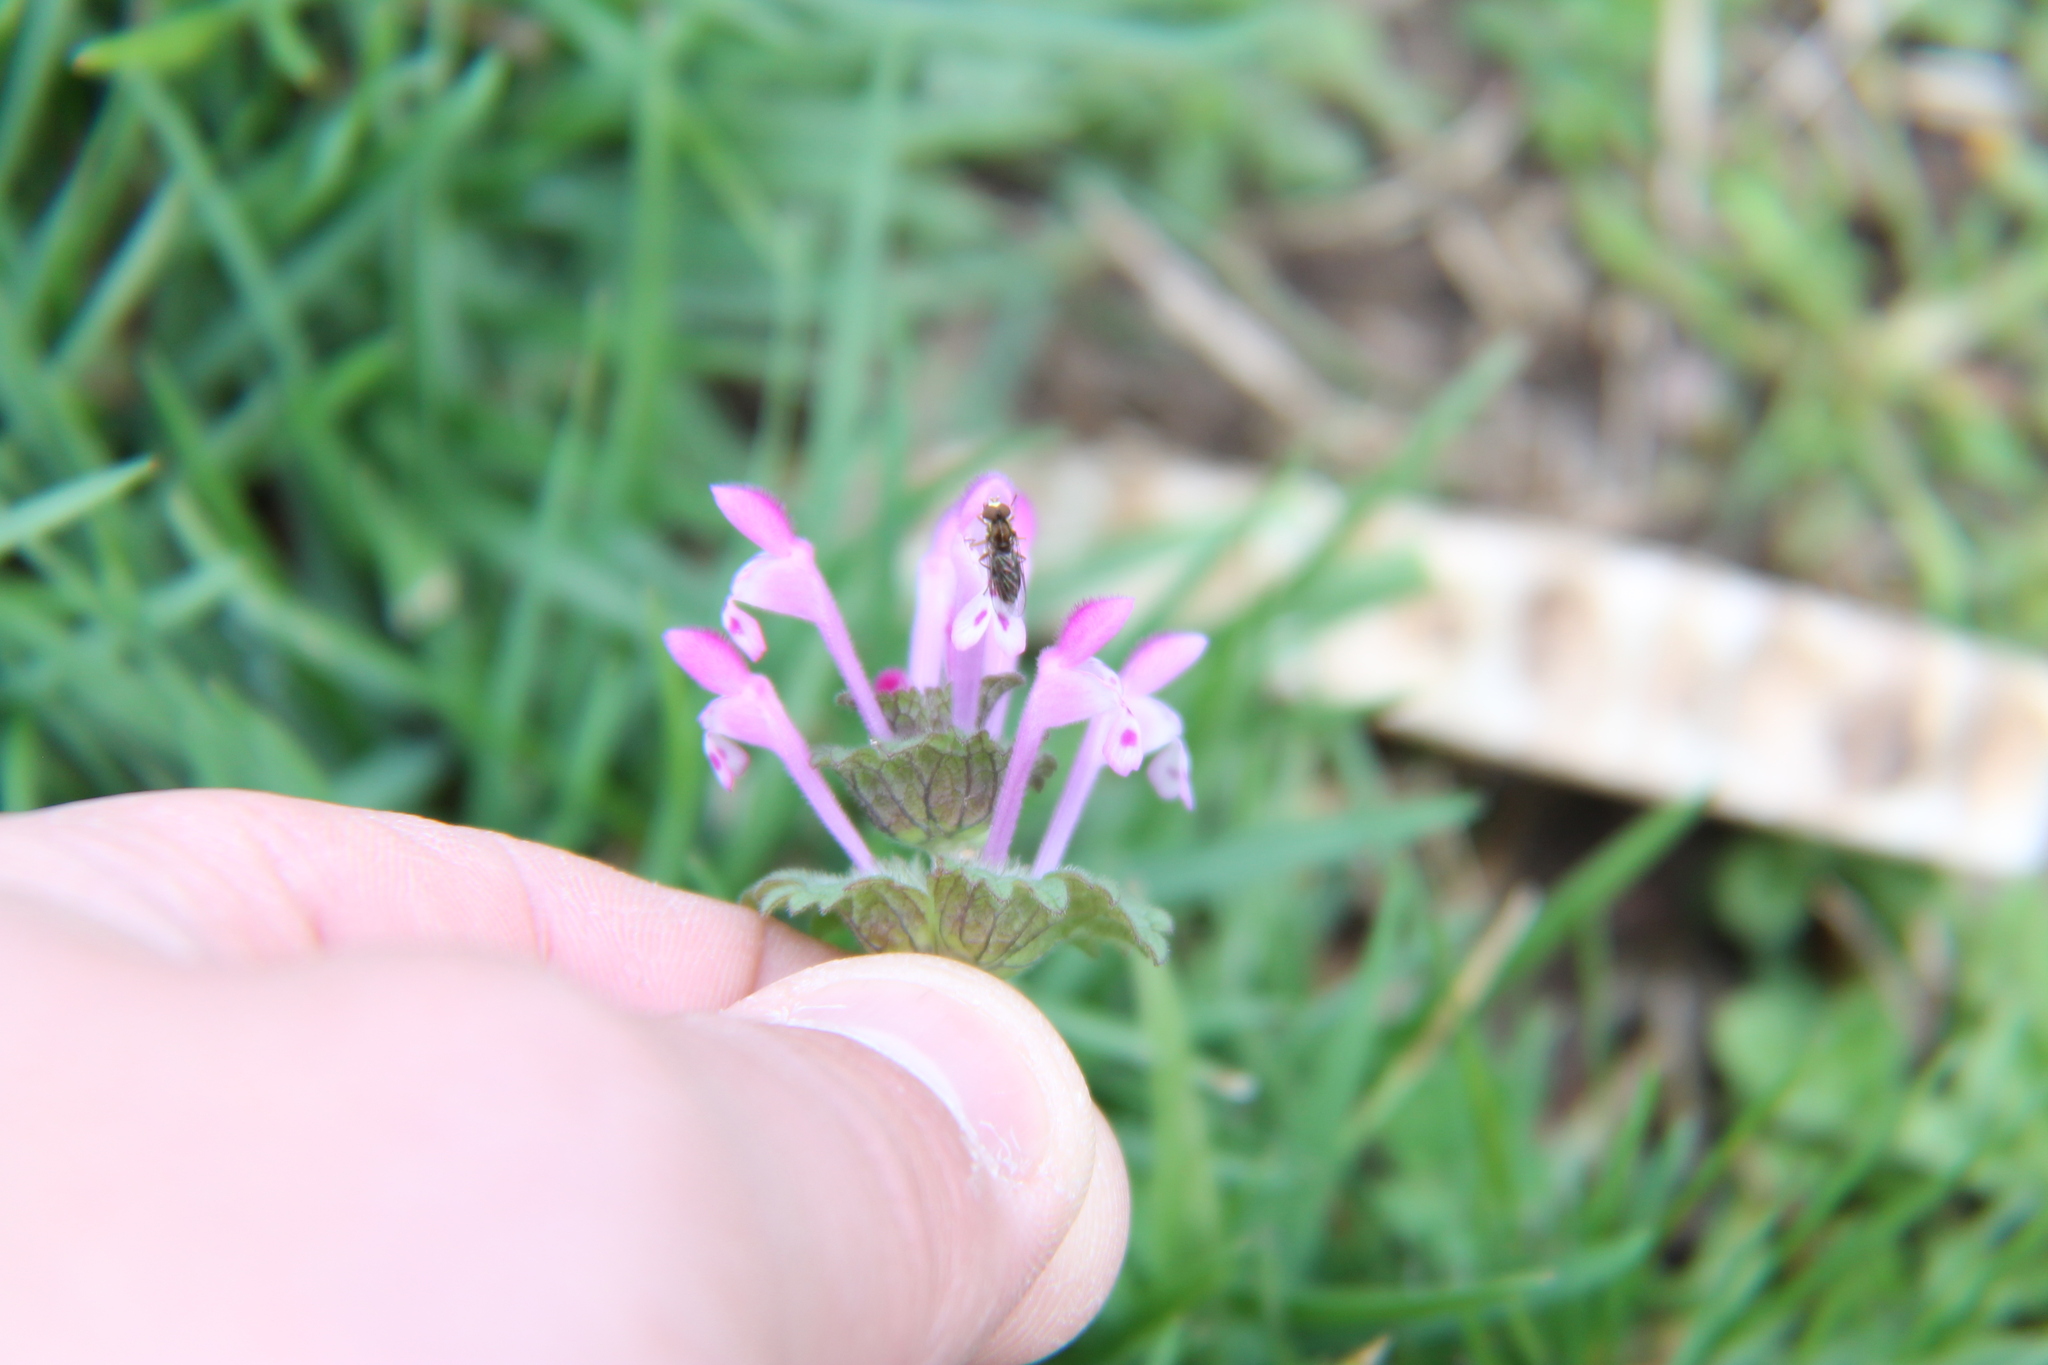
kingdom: Plantae
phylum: Tracheophyta
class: Magnoliopsida
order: Lamiales
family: Lamiaceae
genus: Lamium
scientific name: Lamium amplexicaule
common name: Henbit dead-nettle
